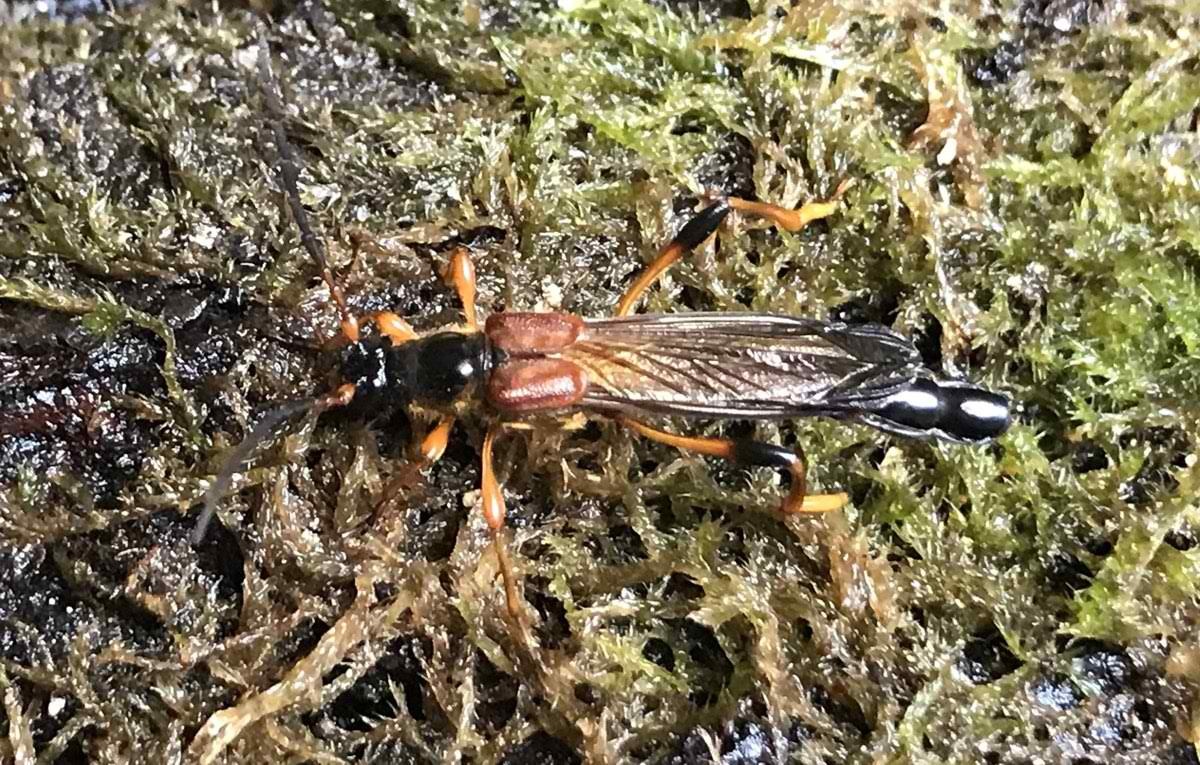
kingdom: Animalia
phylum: Arthropoda
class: Insecta
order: Coleoptera
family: Cerambycidae
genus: Necydalis
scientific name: Necydalis major
